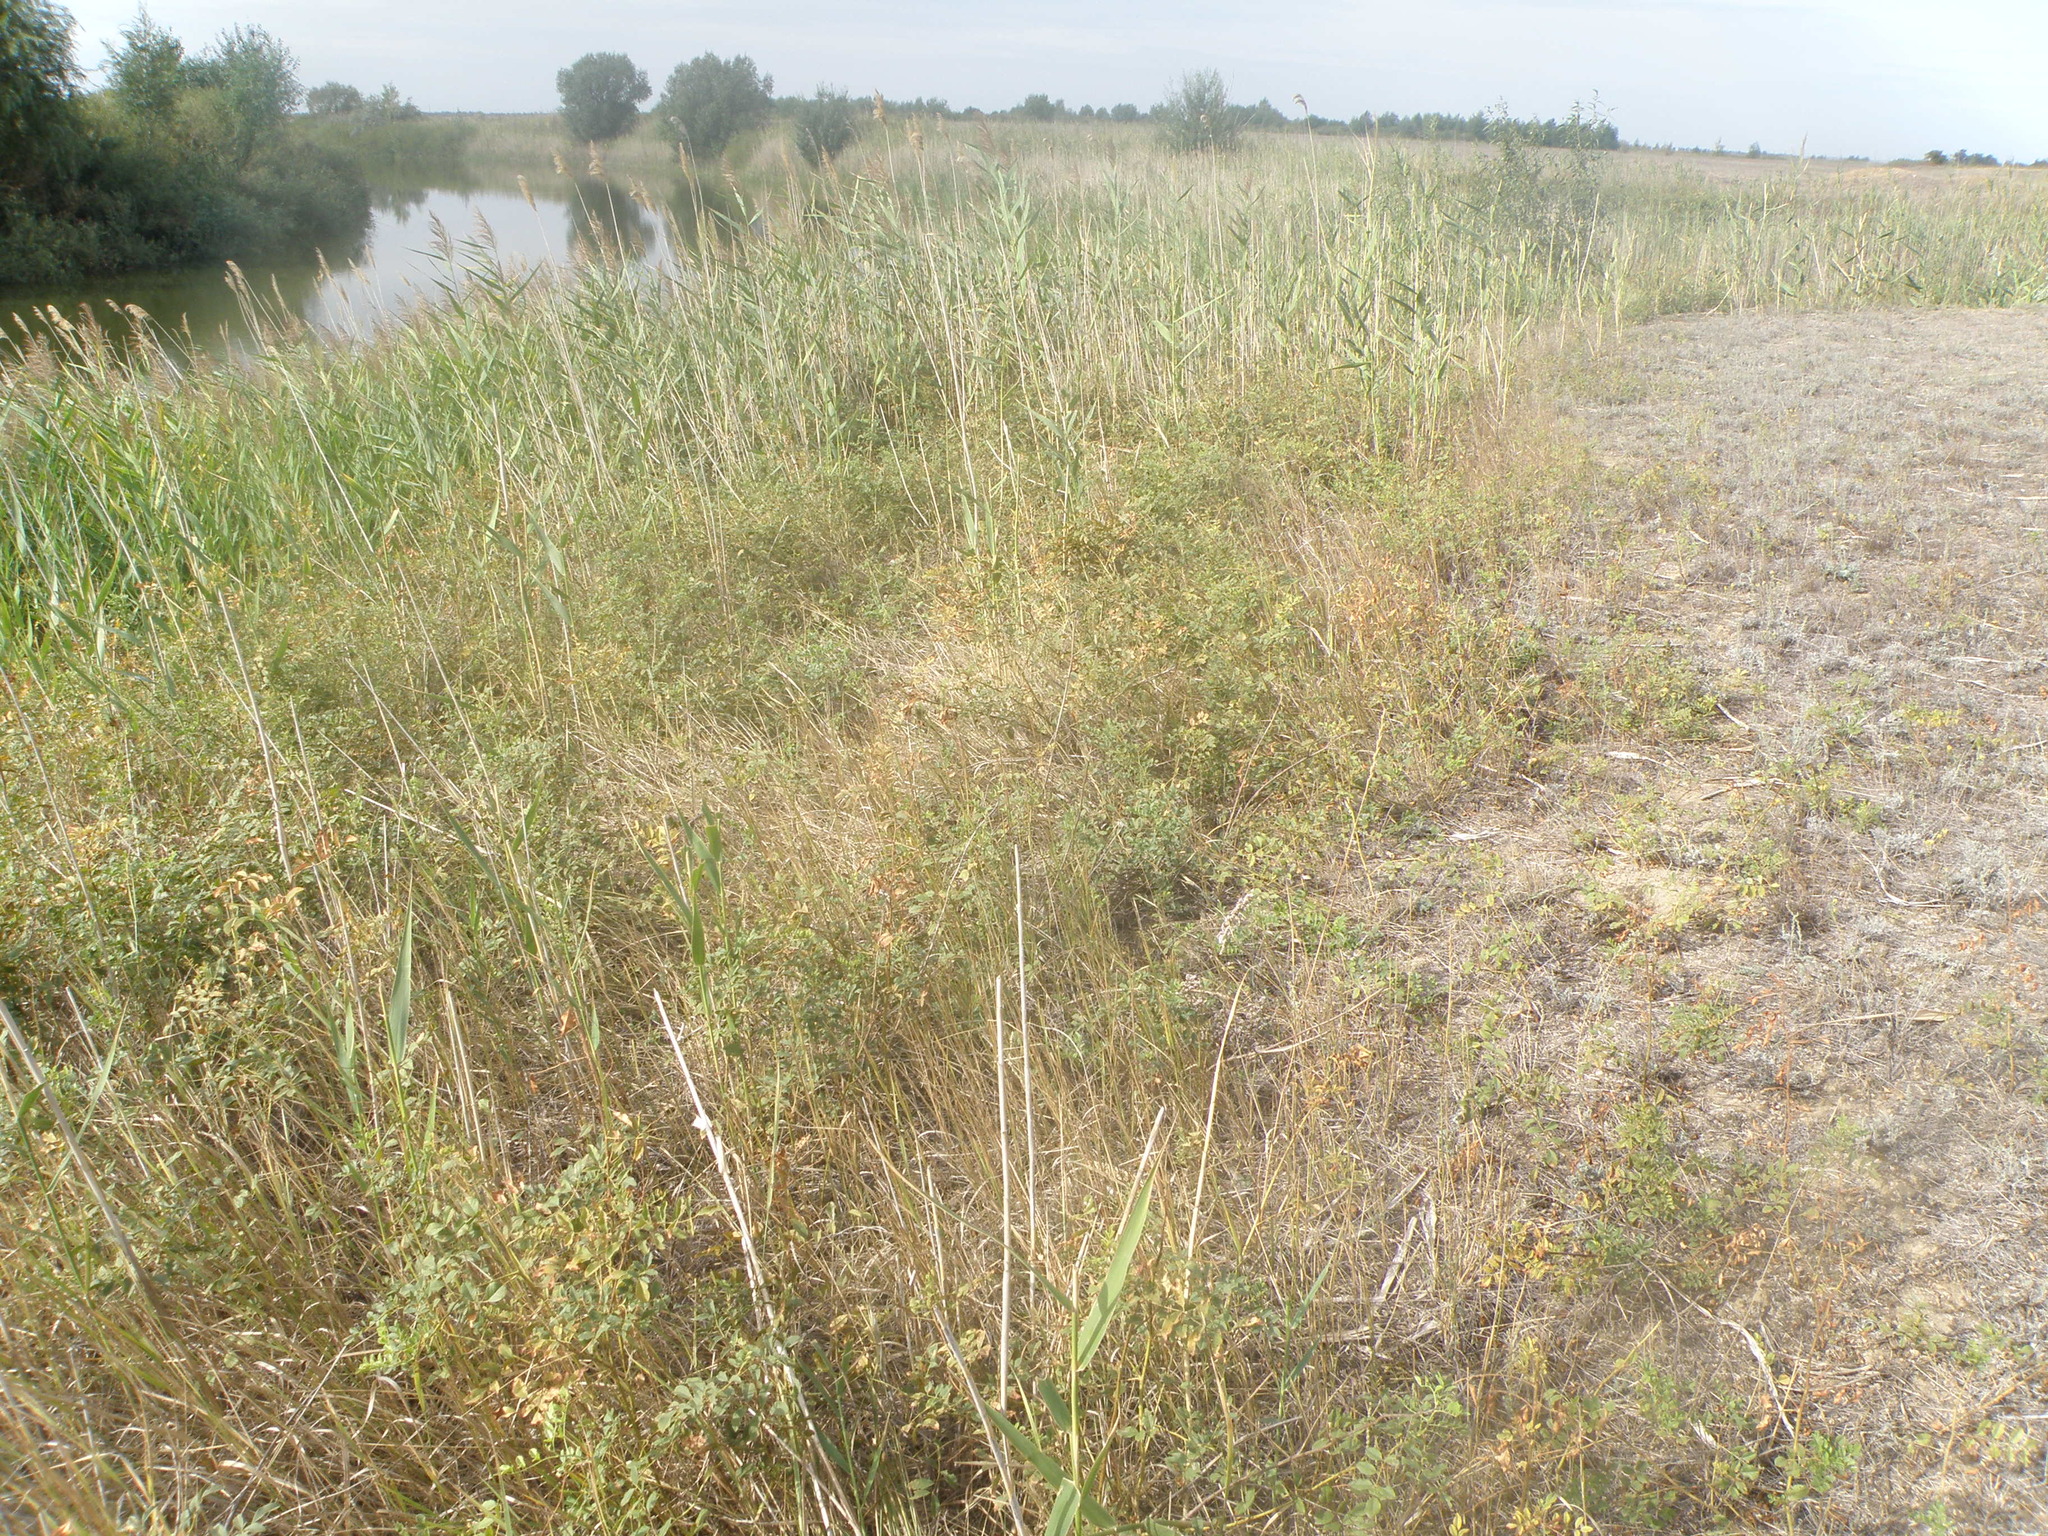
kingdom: Plantae
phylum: Tracheophyta
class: Liliopsida
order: Poales
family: Poaceae
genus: Phragmites
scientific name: Phragmites australis
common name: Common reed
